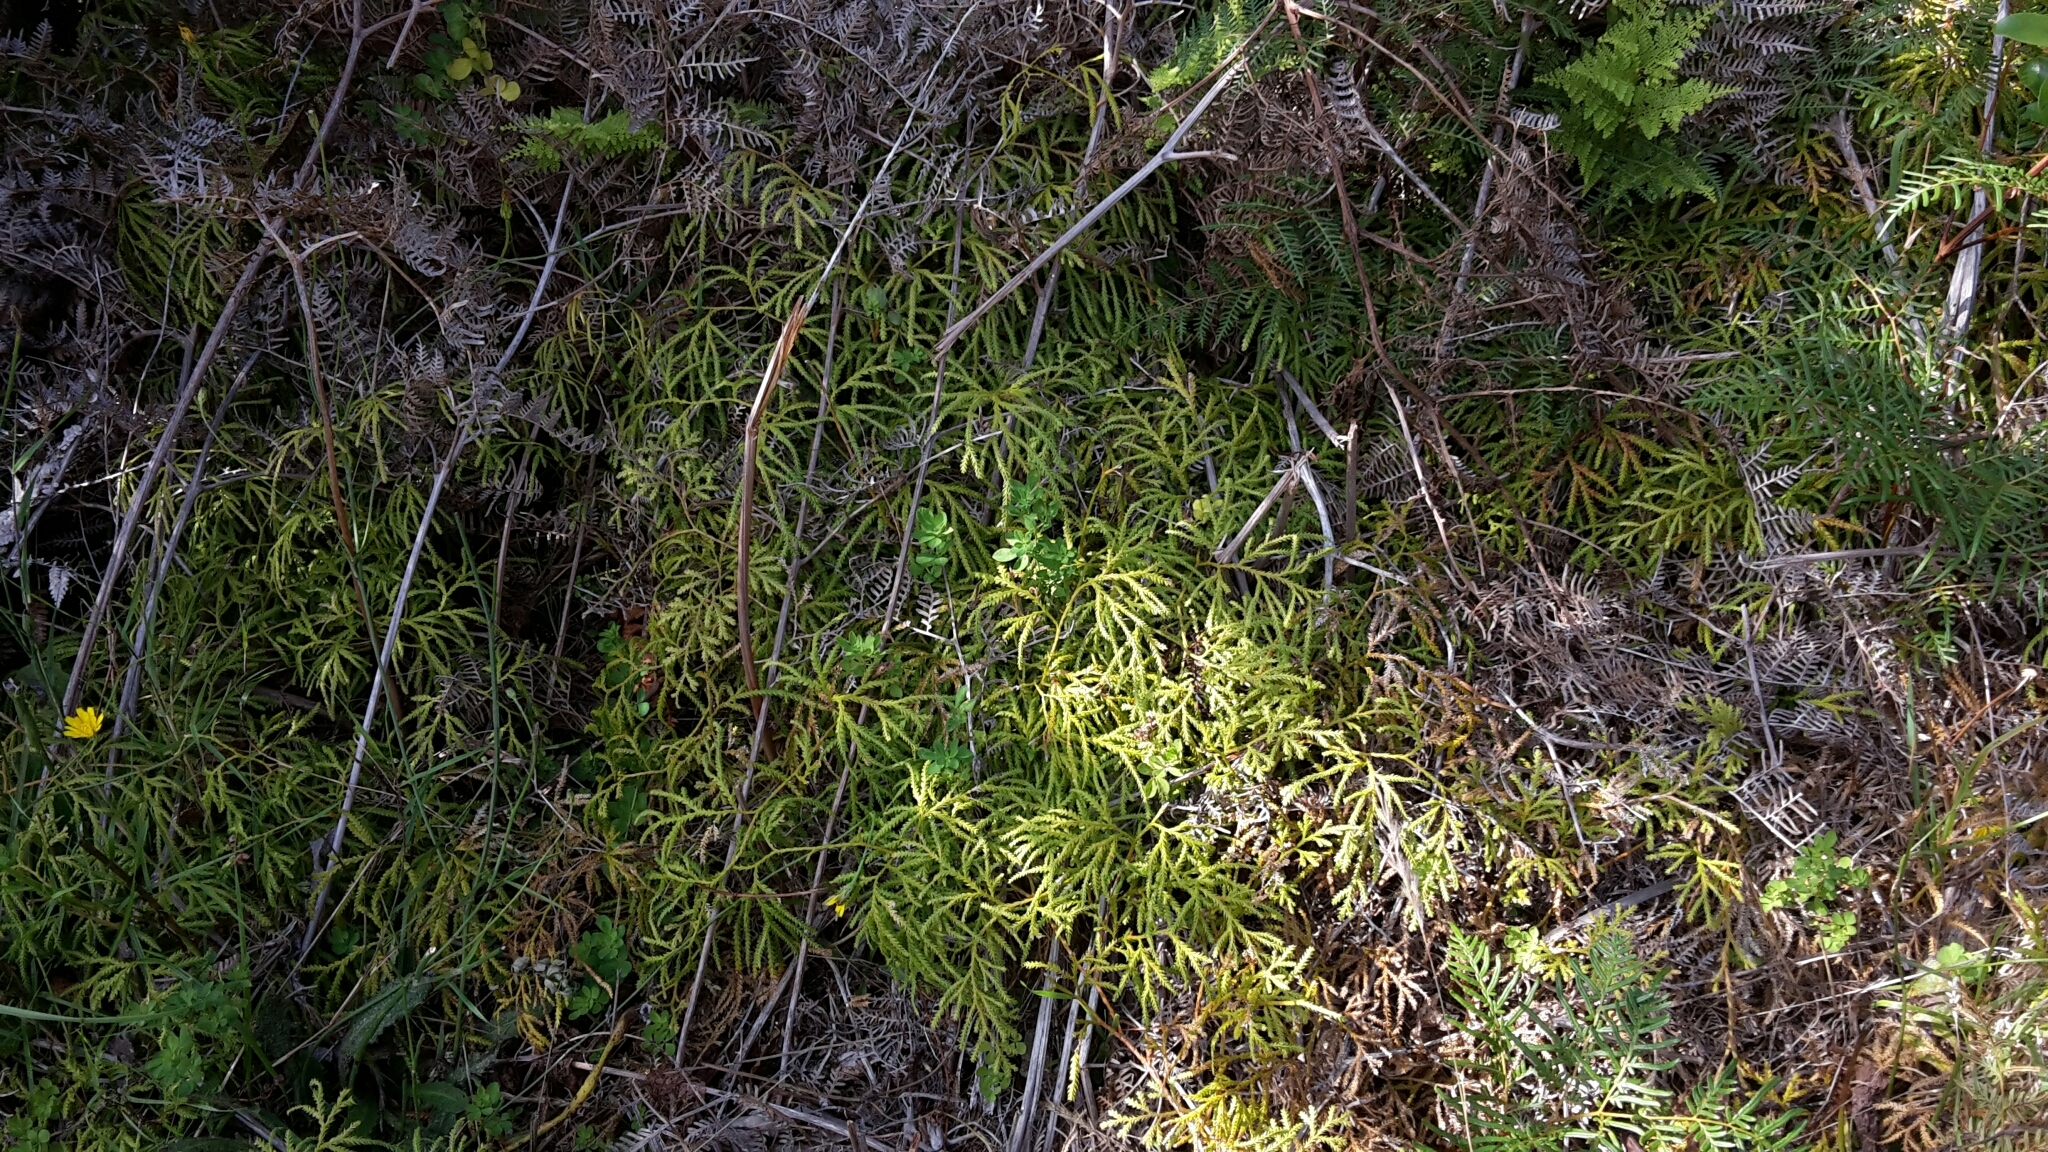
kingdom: Plantae
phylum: Tracheophyta
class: Lycopodiopsida
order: Lycopodiales
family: Lycopodiaceae
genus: Lycopodium
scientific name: Lycopodium volubile
